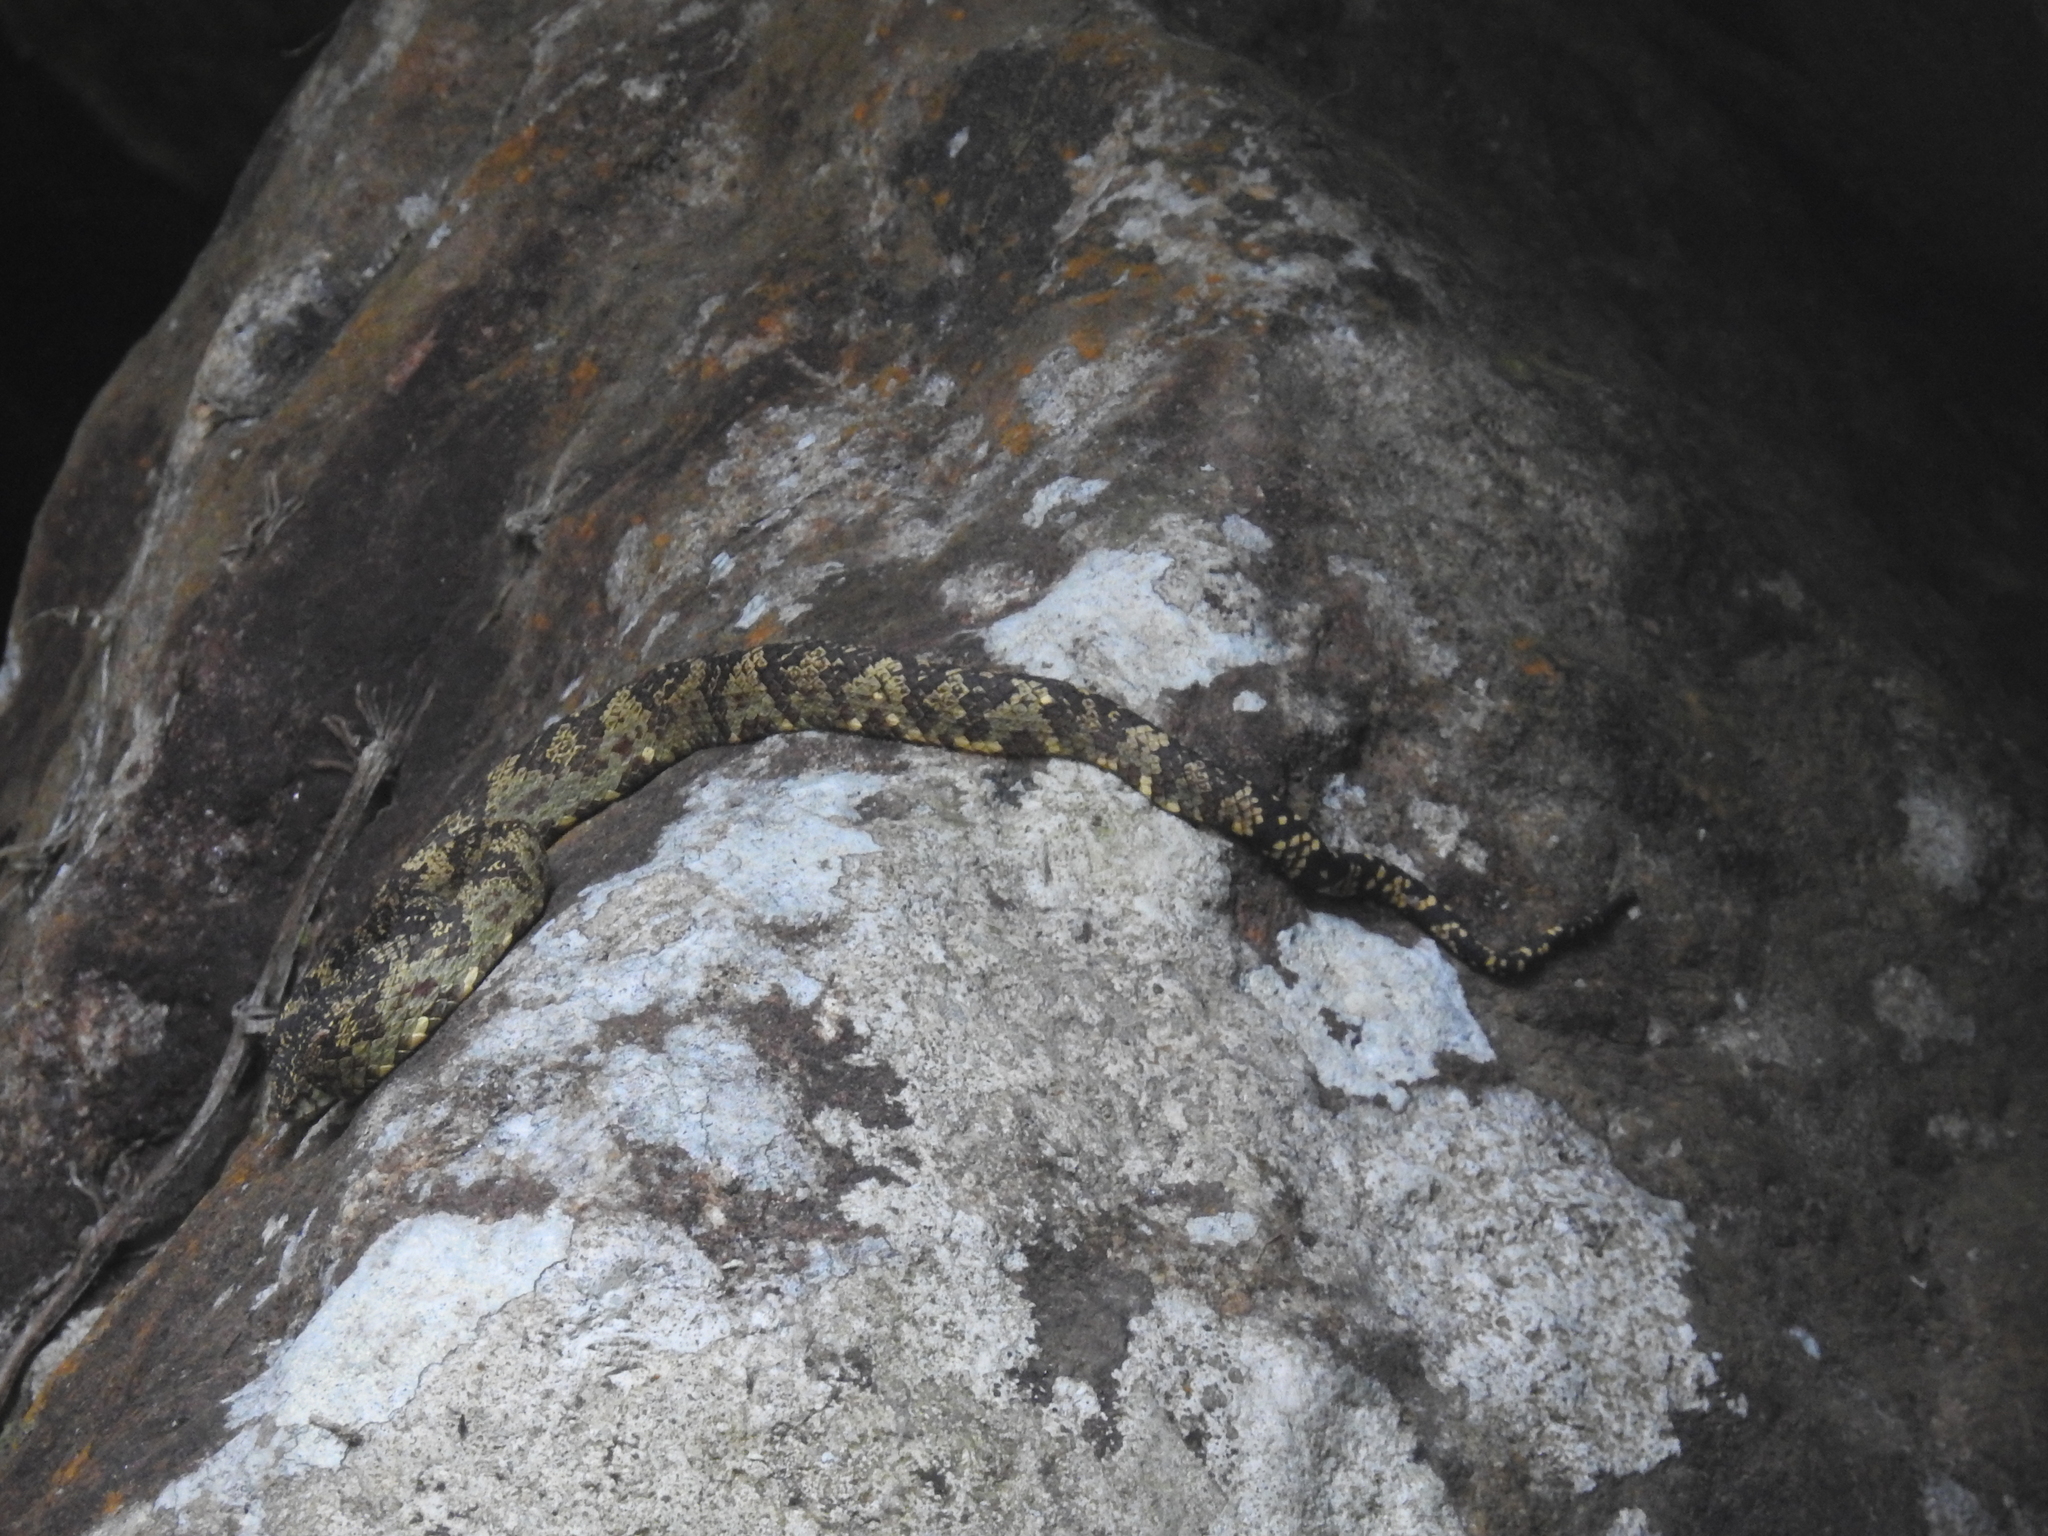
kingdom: Animalia
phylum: Chordata
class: Squamata
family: Viperidae
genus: Craspedocephalus
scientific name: Craspedocephalus travancoricus
